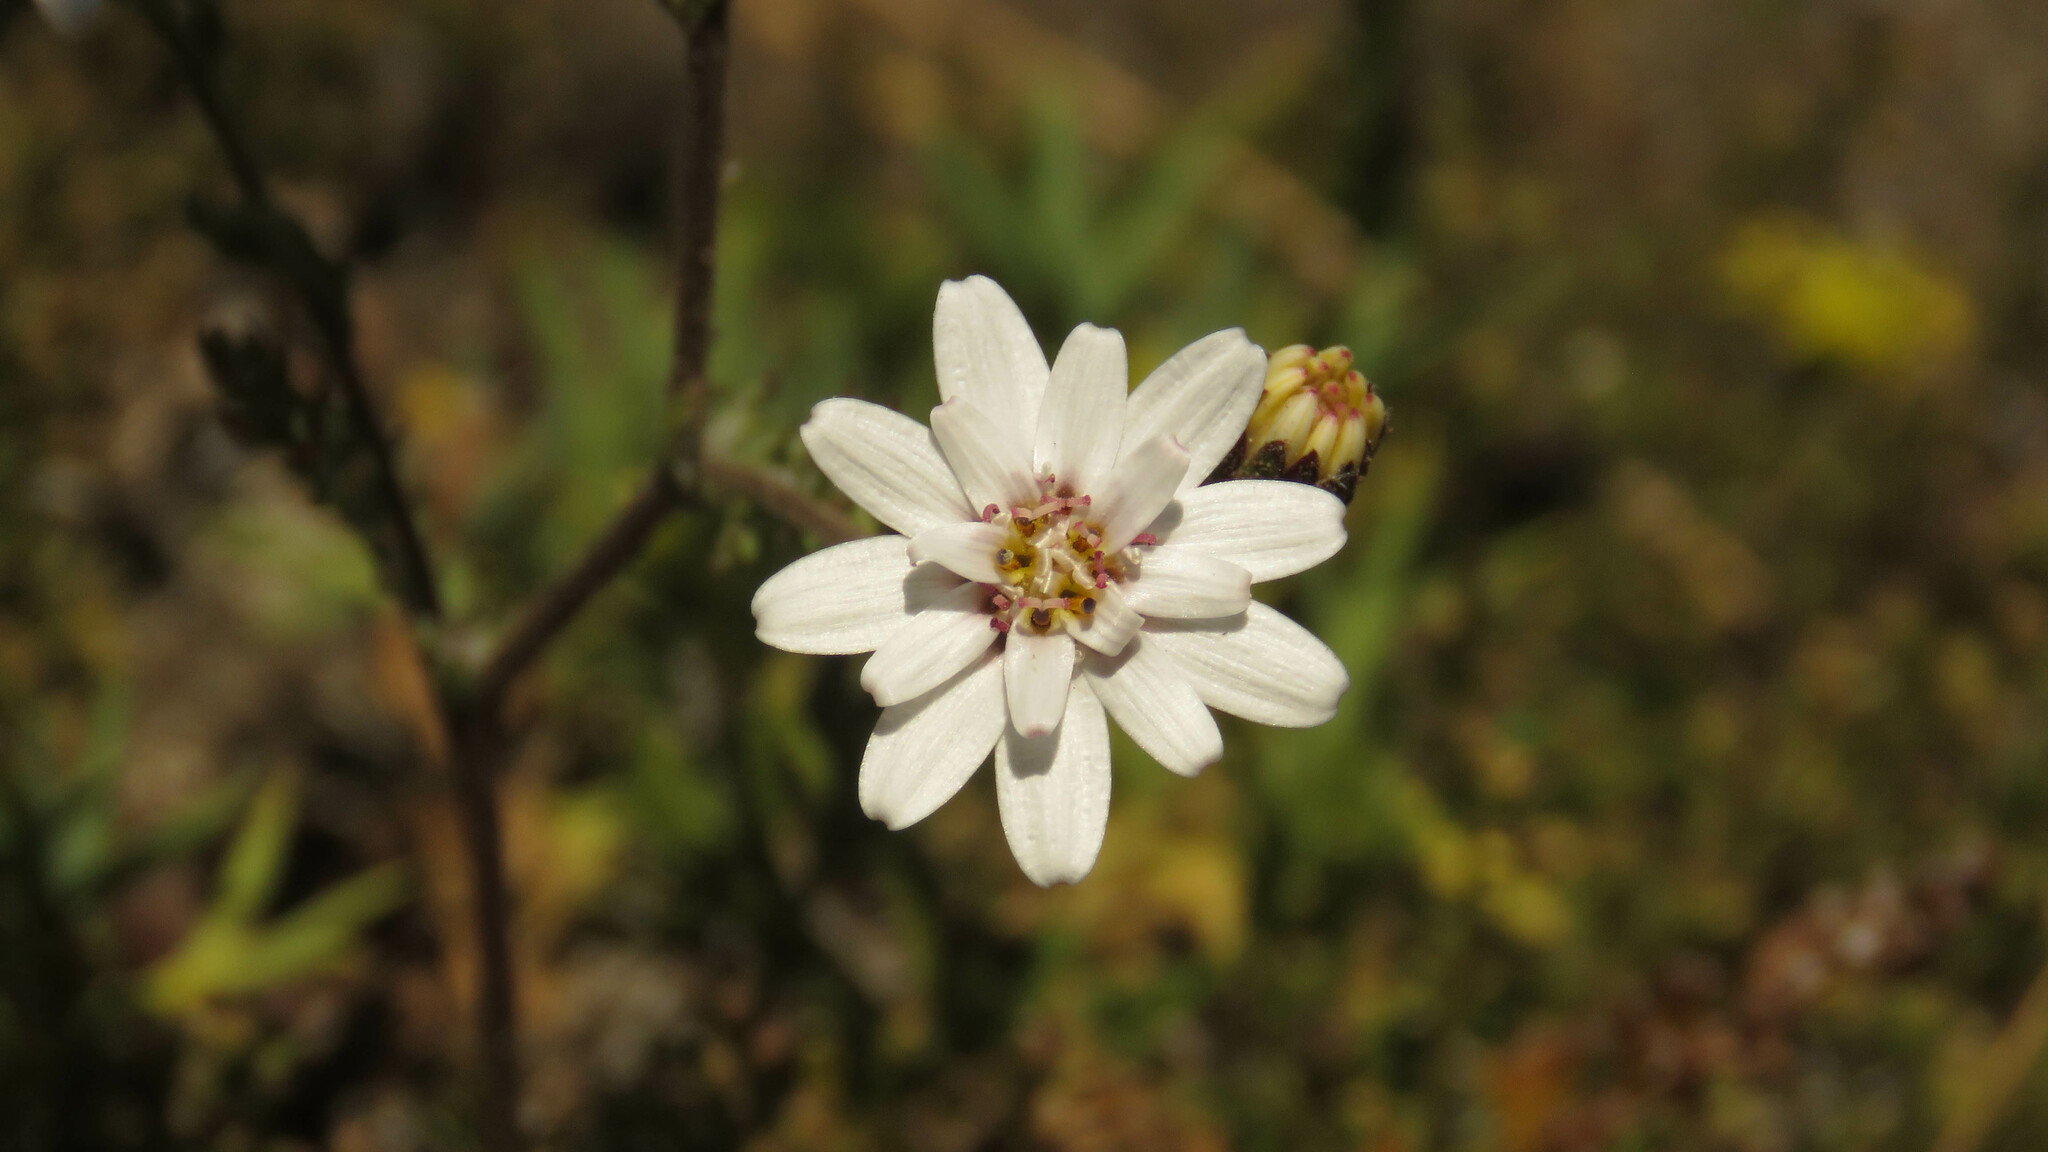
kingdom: Plantae
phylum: Tracheophyta
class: Magnoliopsida
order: Asterales
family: Asteraceae
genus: Leucheria
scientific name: Leucheria achillaeifolia
